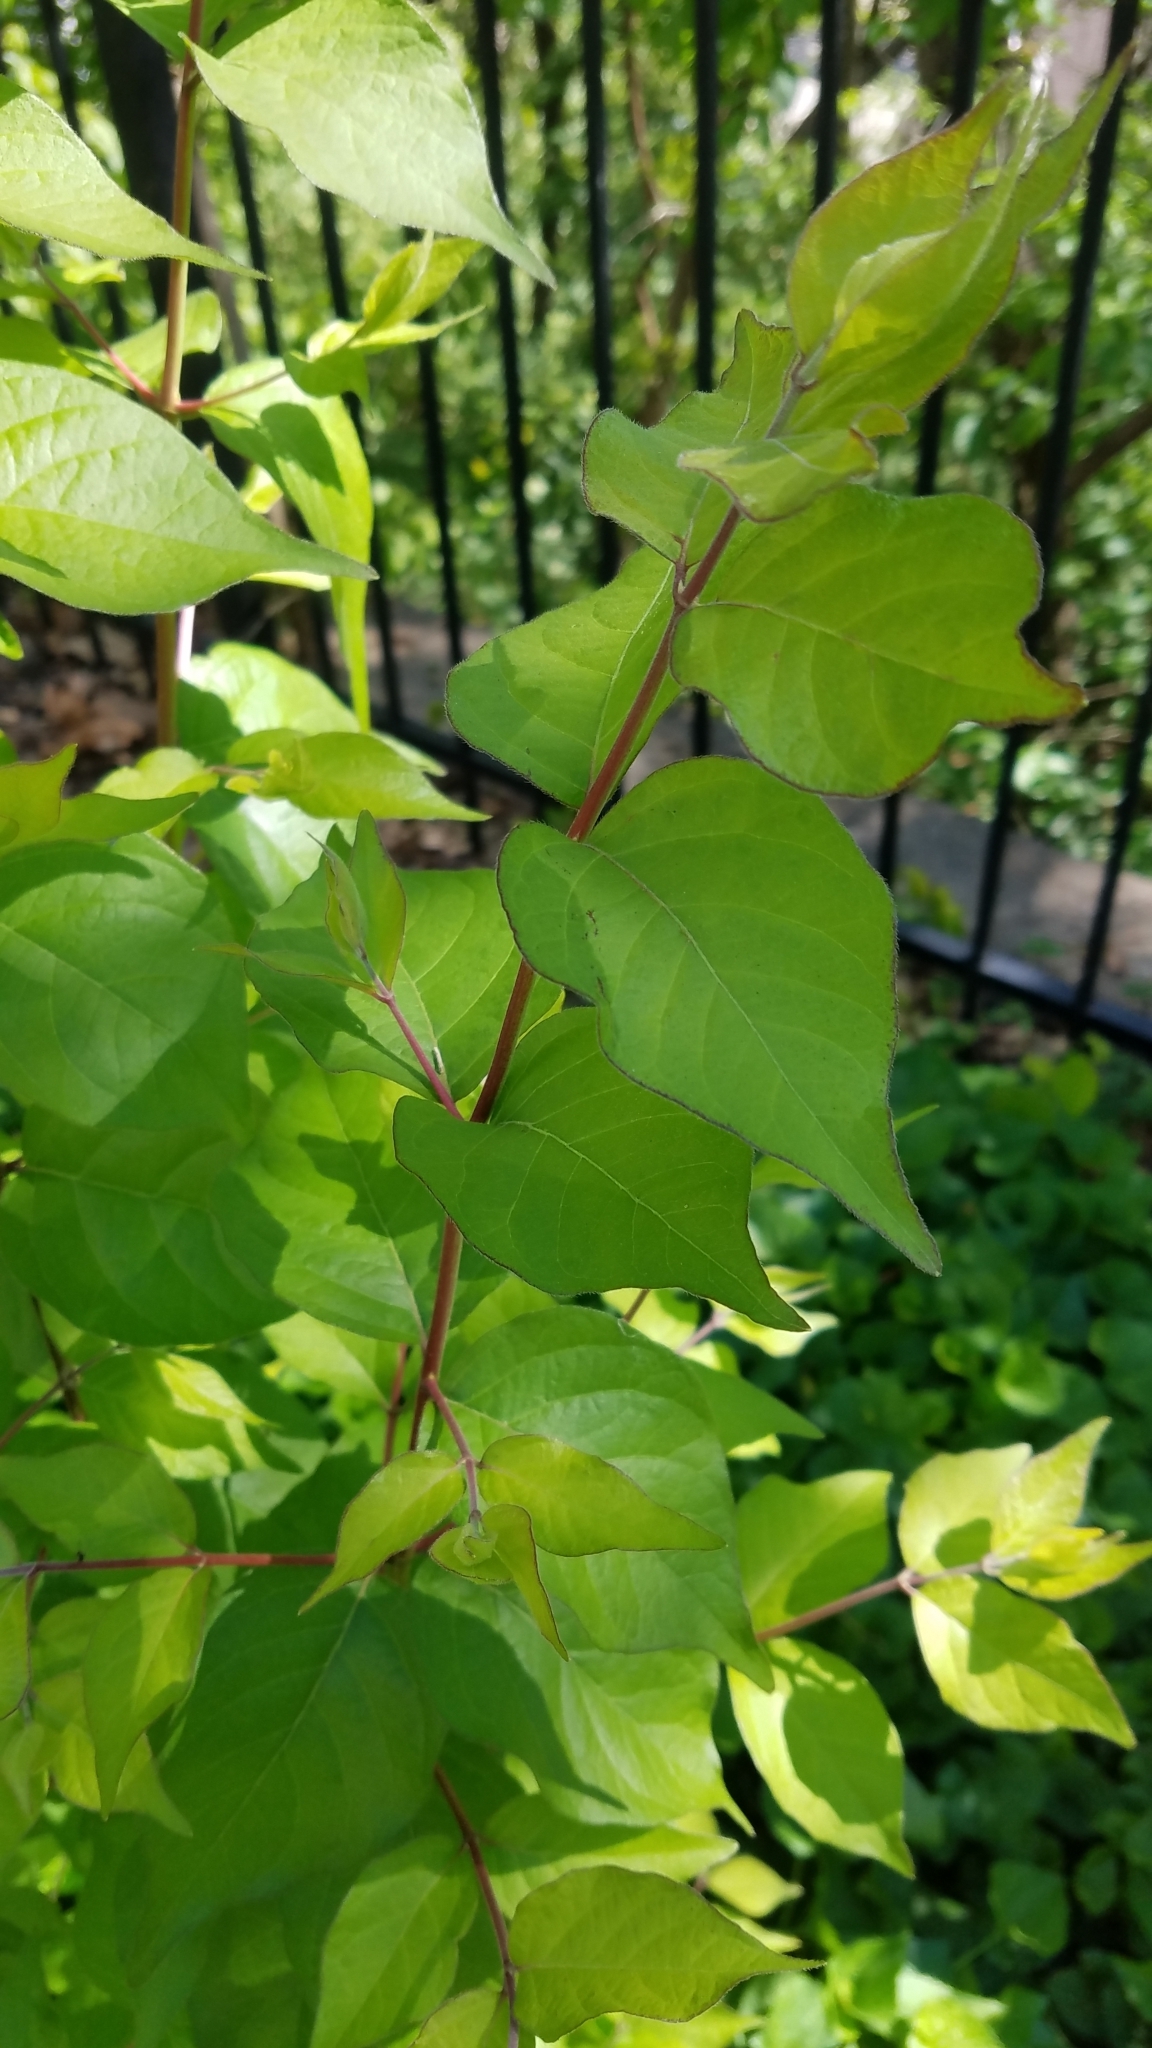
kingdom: Plantae
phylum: Tracheophyta
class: Magnoliopsida
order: Dipsacales
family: Caprifoliaceae
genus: Lonicera
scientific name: Lonicera maackii
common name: Amur honeysuckle
